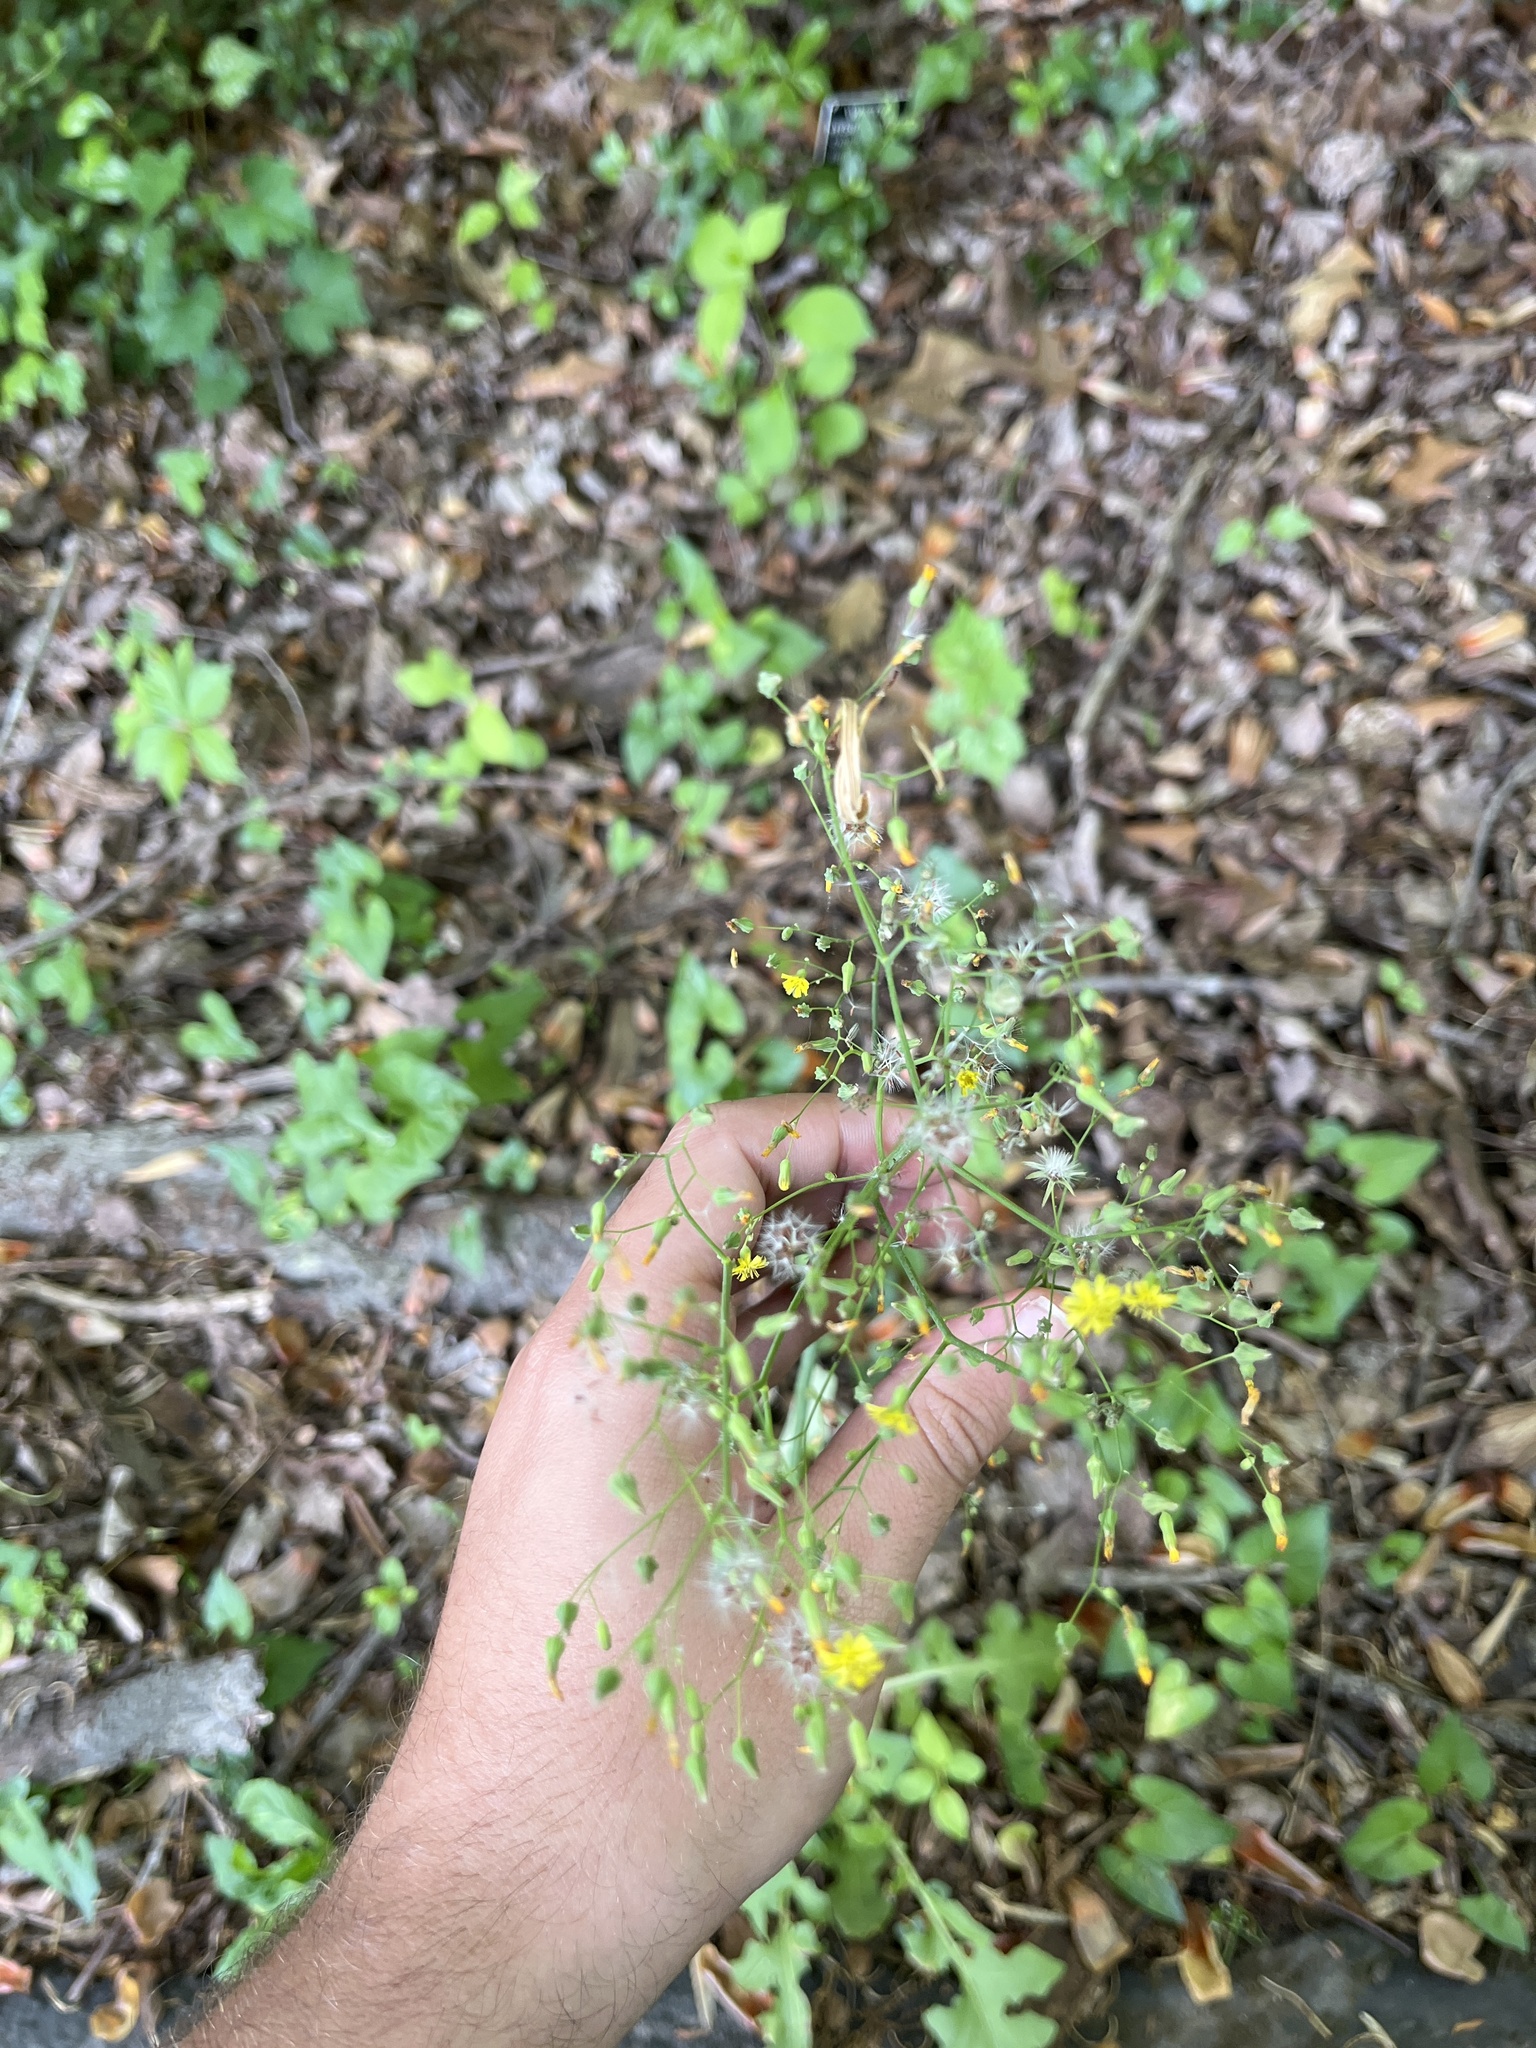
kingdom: Plantae
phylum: Tracheophyta
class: Magnoliopsida
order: Asterales
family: Asteraceae
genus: Youngia
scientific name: Youngia japonica
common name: Oriental false hawksbeard
